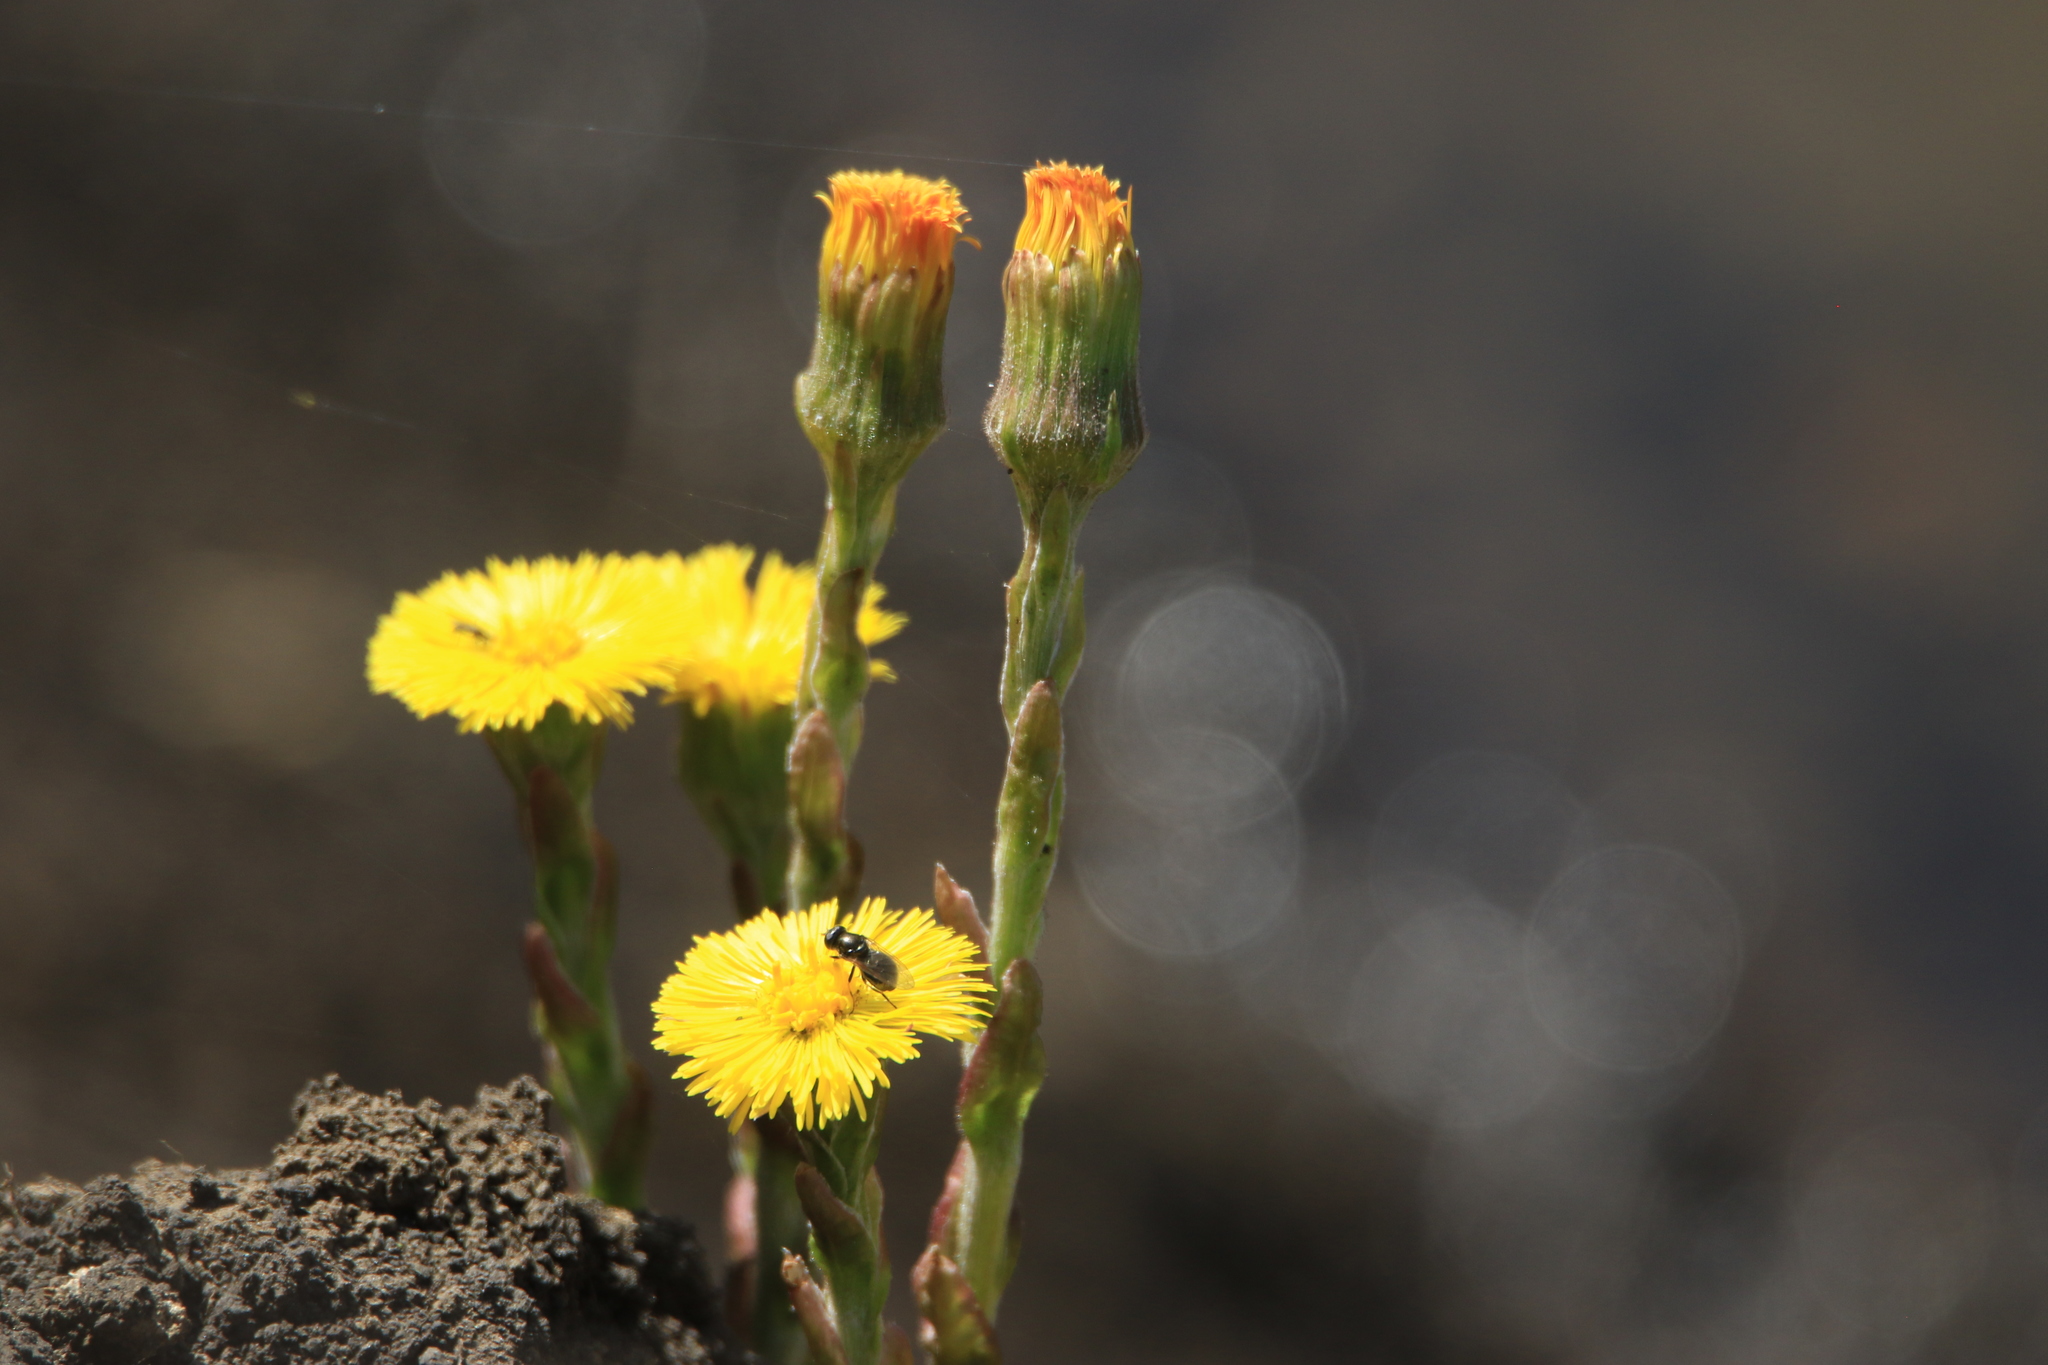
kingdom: Plantae
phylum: Tracheophyta
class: Magnoliopsida
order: Asterales
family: Asteraceae
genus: Tussilago
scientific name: Tussilago farfara
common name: Coltsfoot
